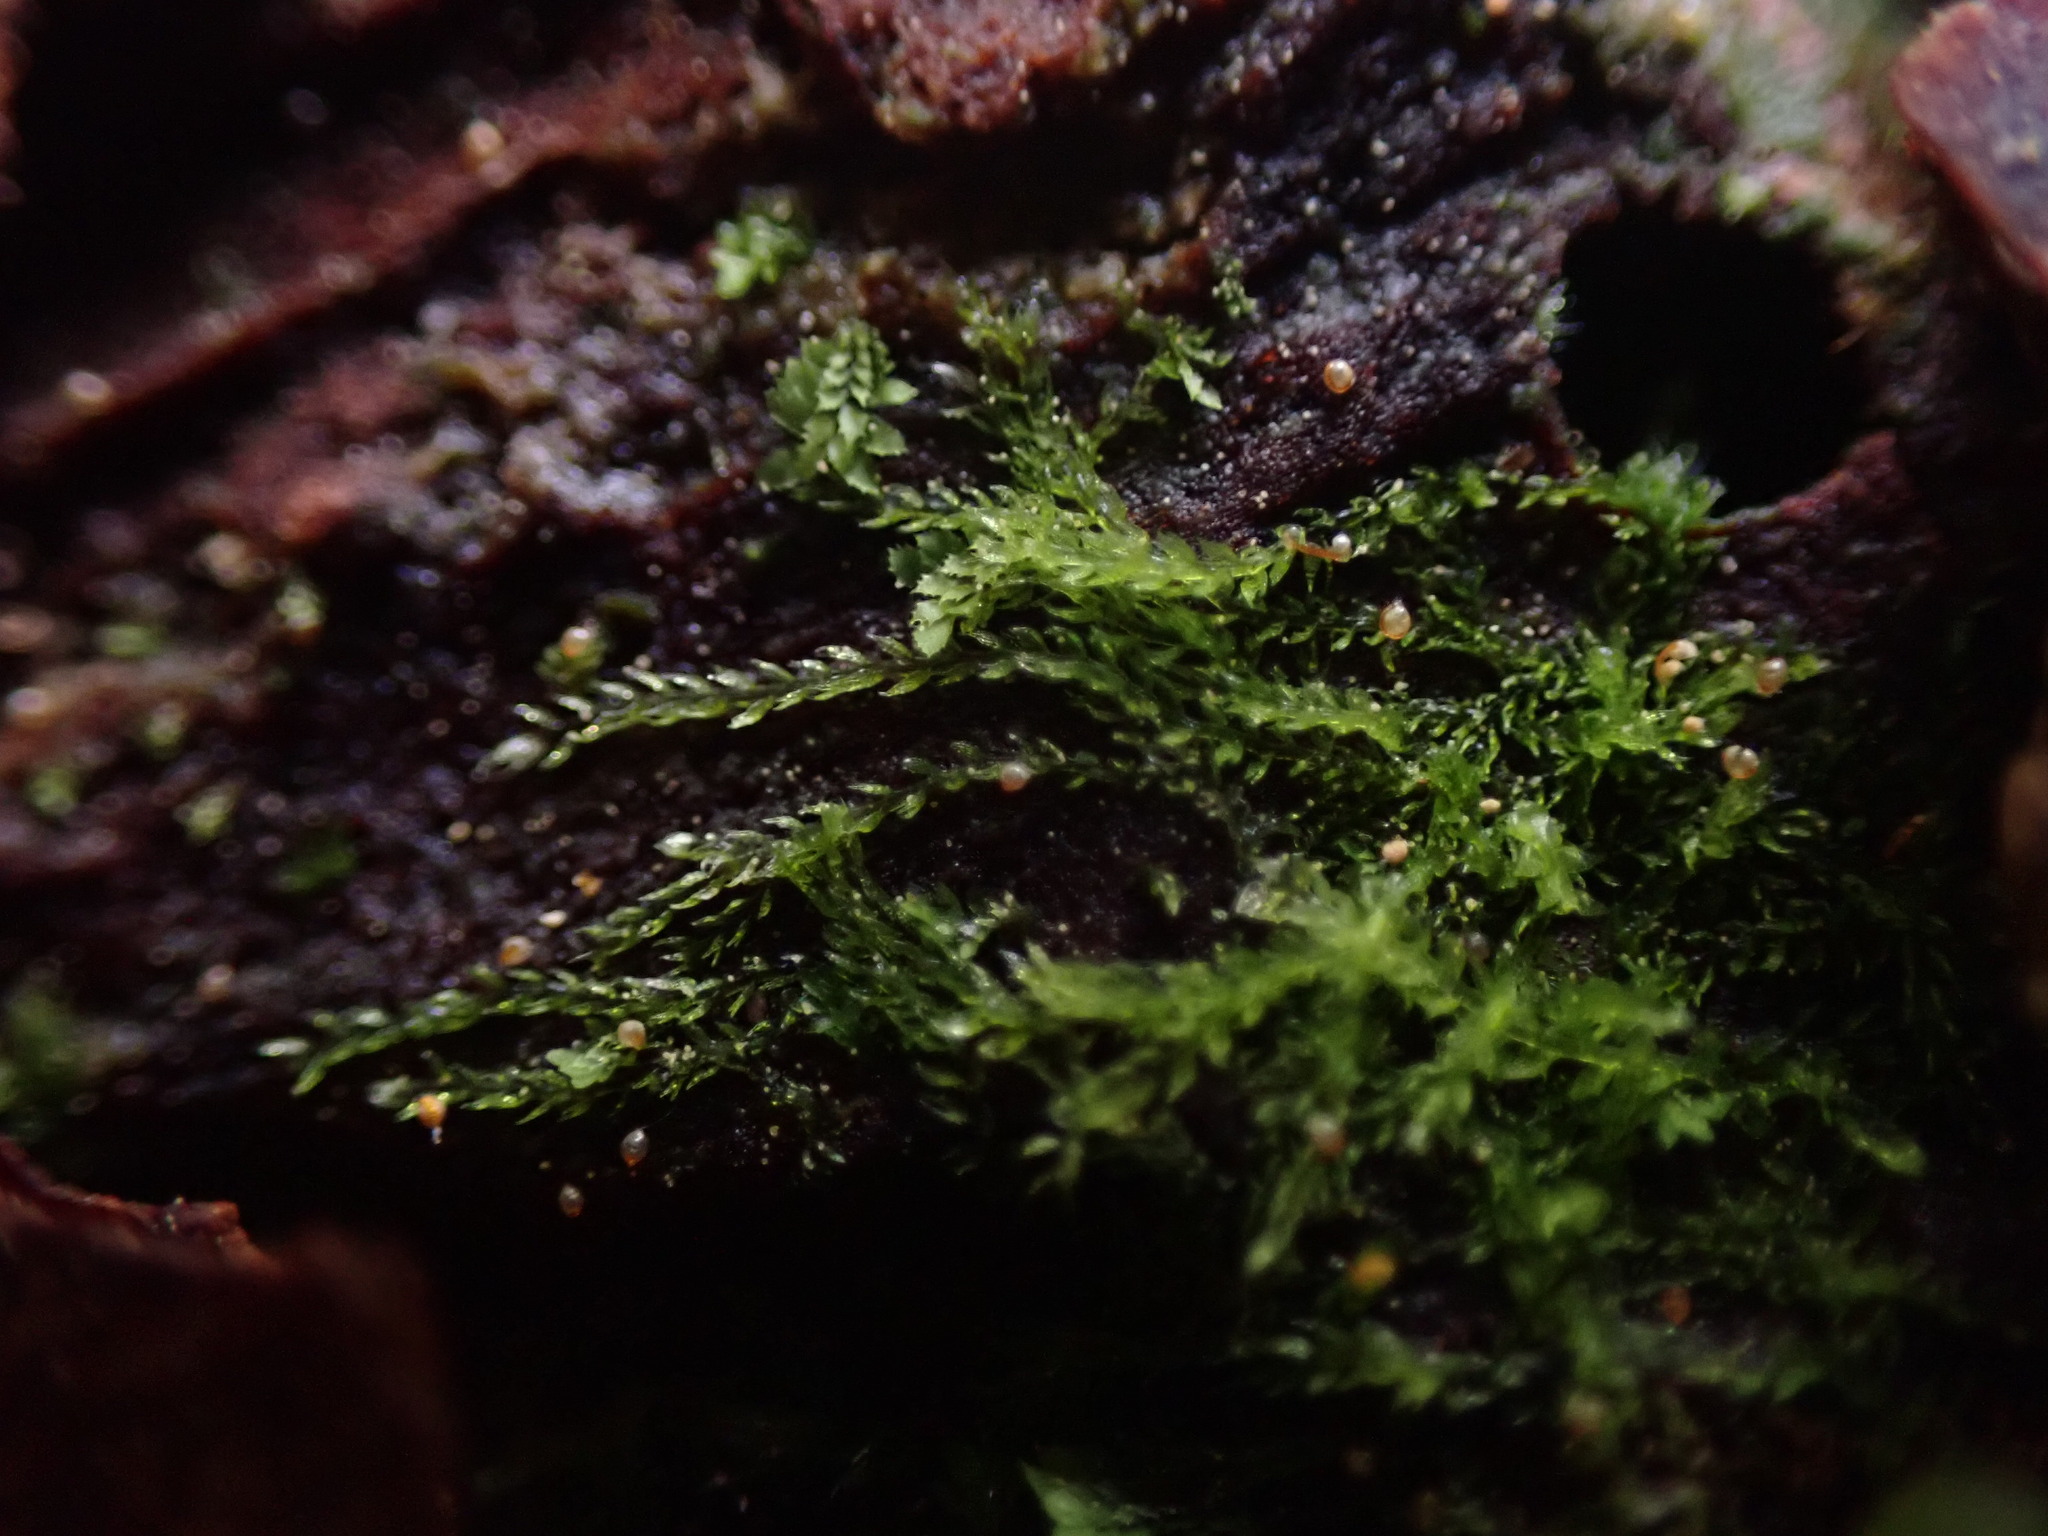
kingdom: Plantae
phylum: Marchantiophyta
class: Jungermanniopsida
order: Jungermanniales
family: Cephaloziaceae
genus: Cephalozia
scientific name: Cephalozia bicuspidata
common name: Two-horned pincerwort
